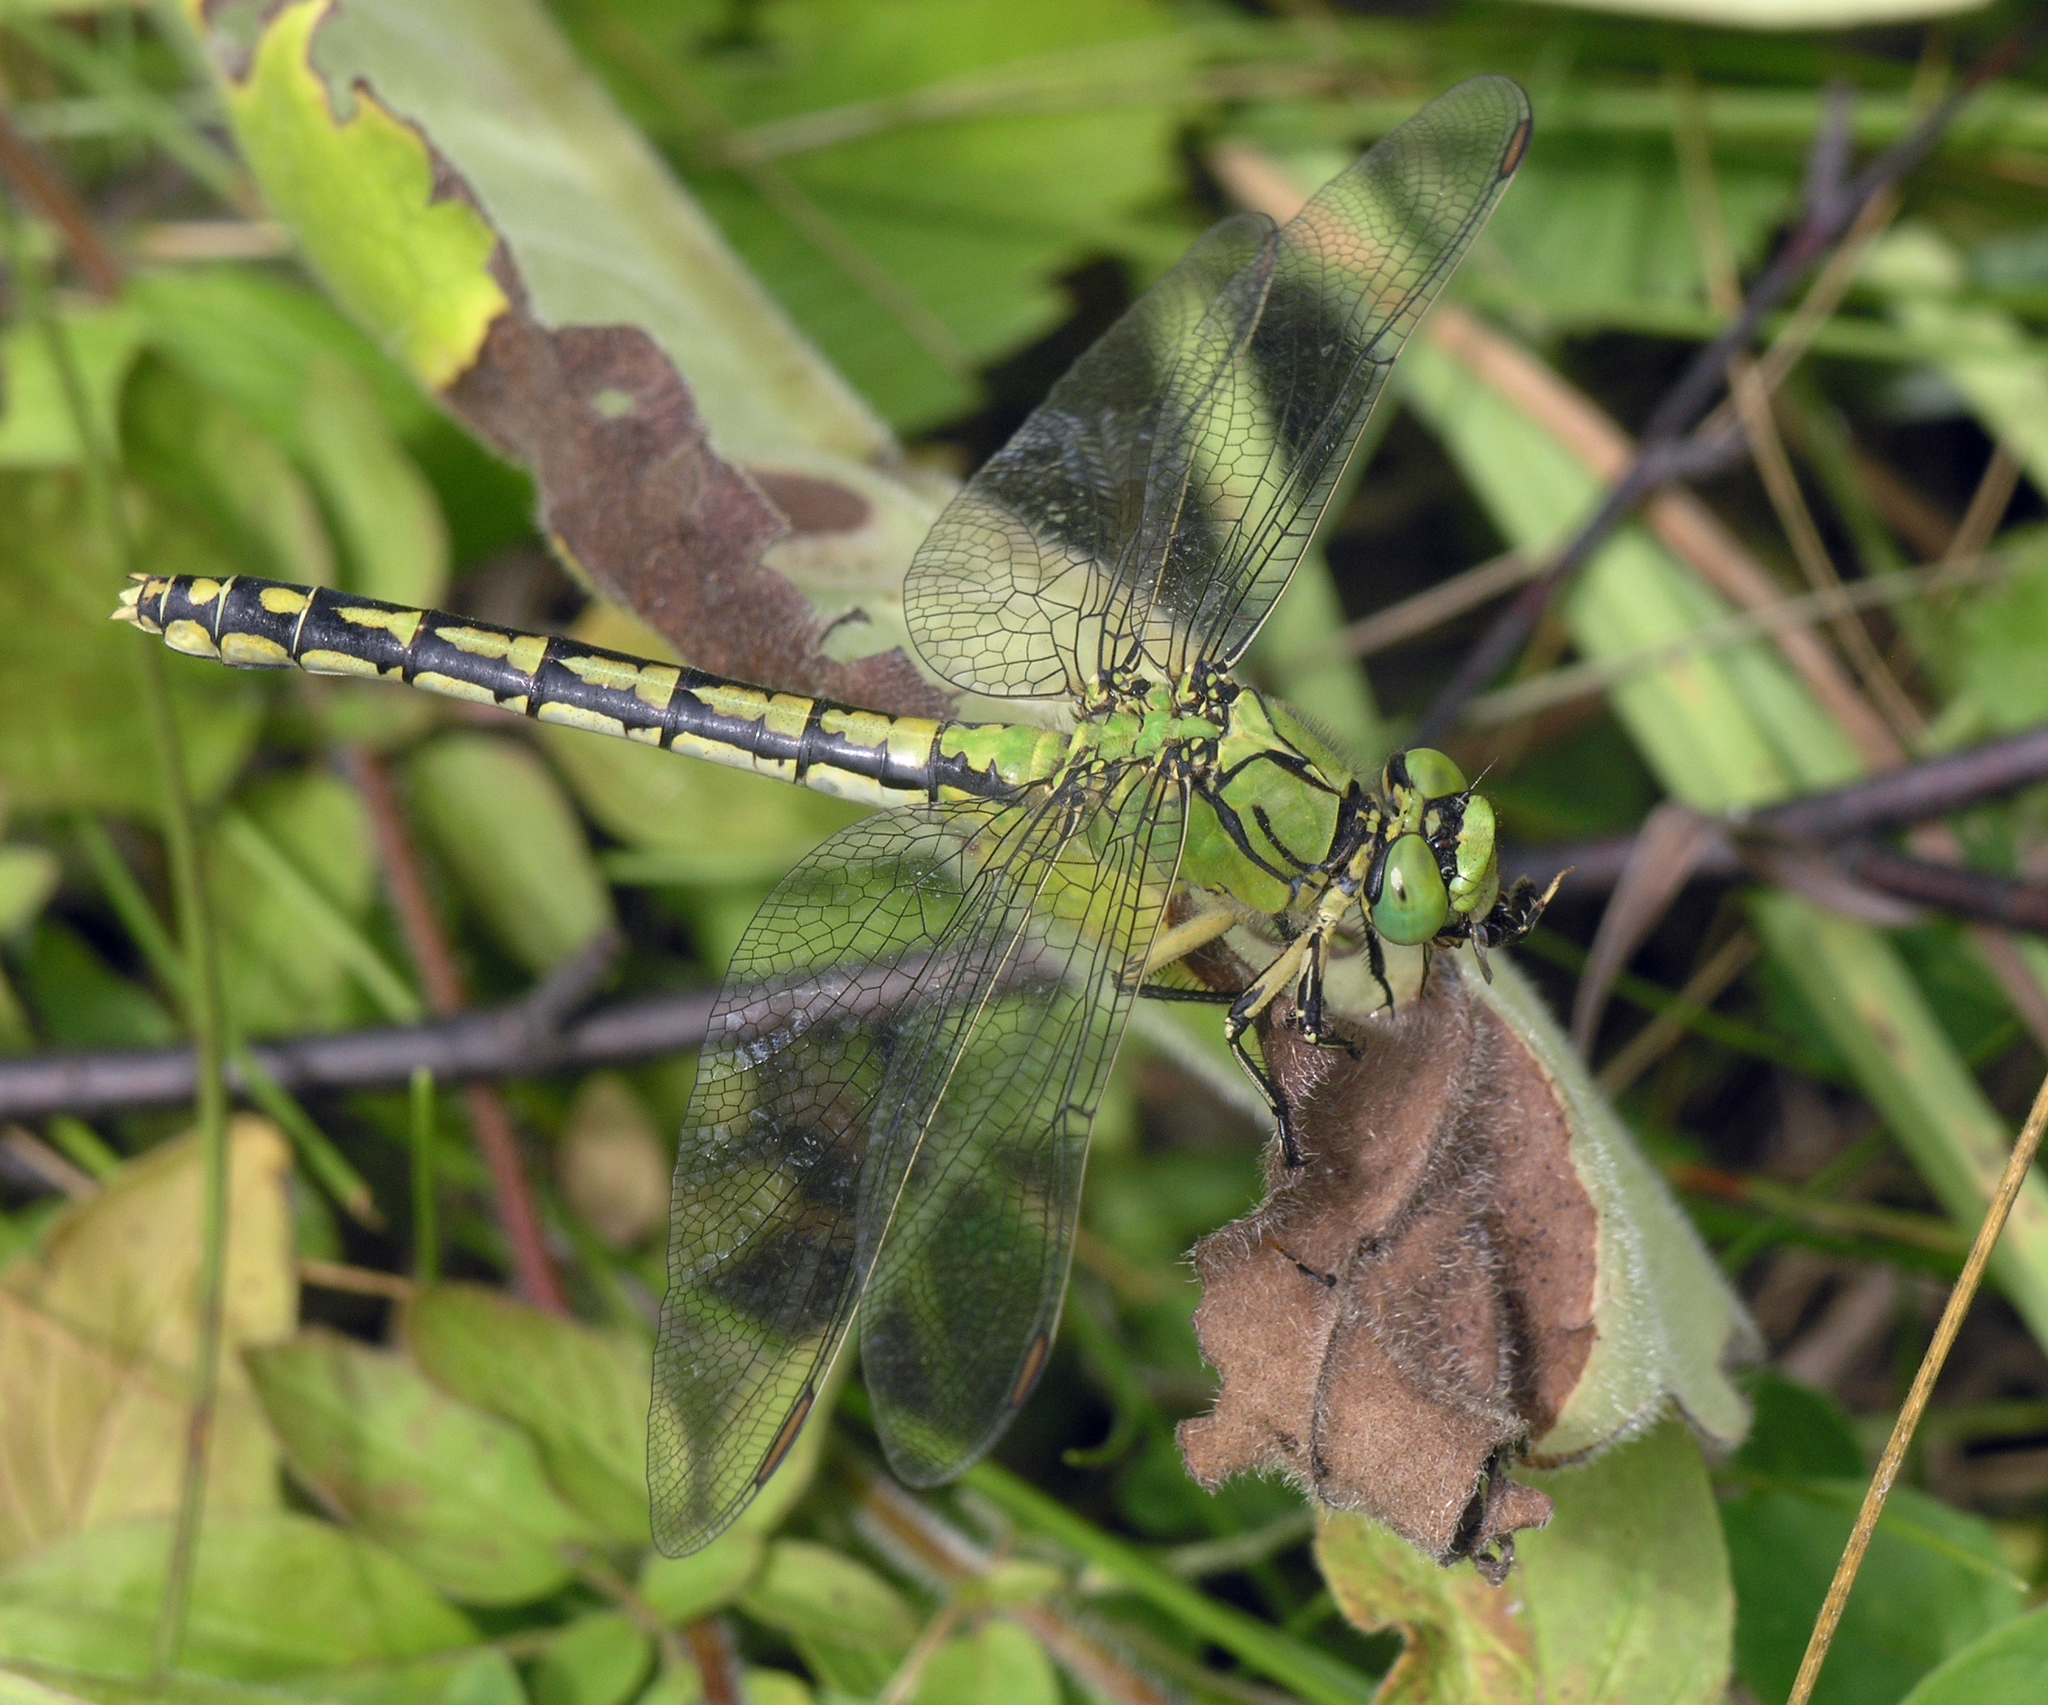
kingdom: Animalia
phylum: Arthropoda
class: Insecta
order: Odonata
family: Gomphidae
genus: Ophiogomphus
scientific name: Ophiogomphus cecilia
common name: Green snaketail
